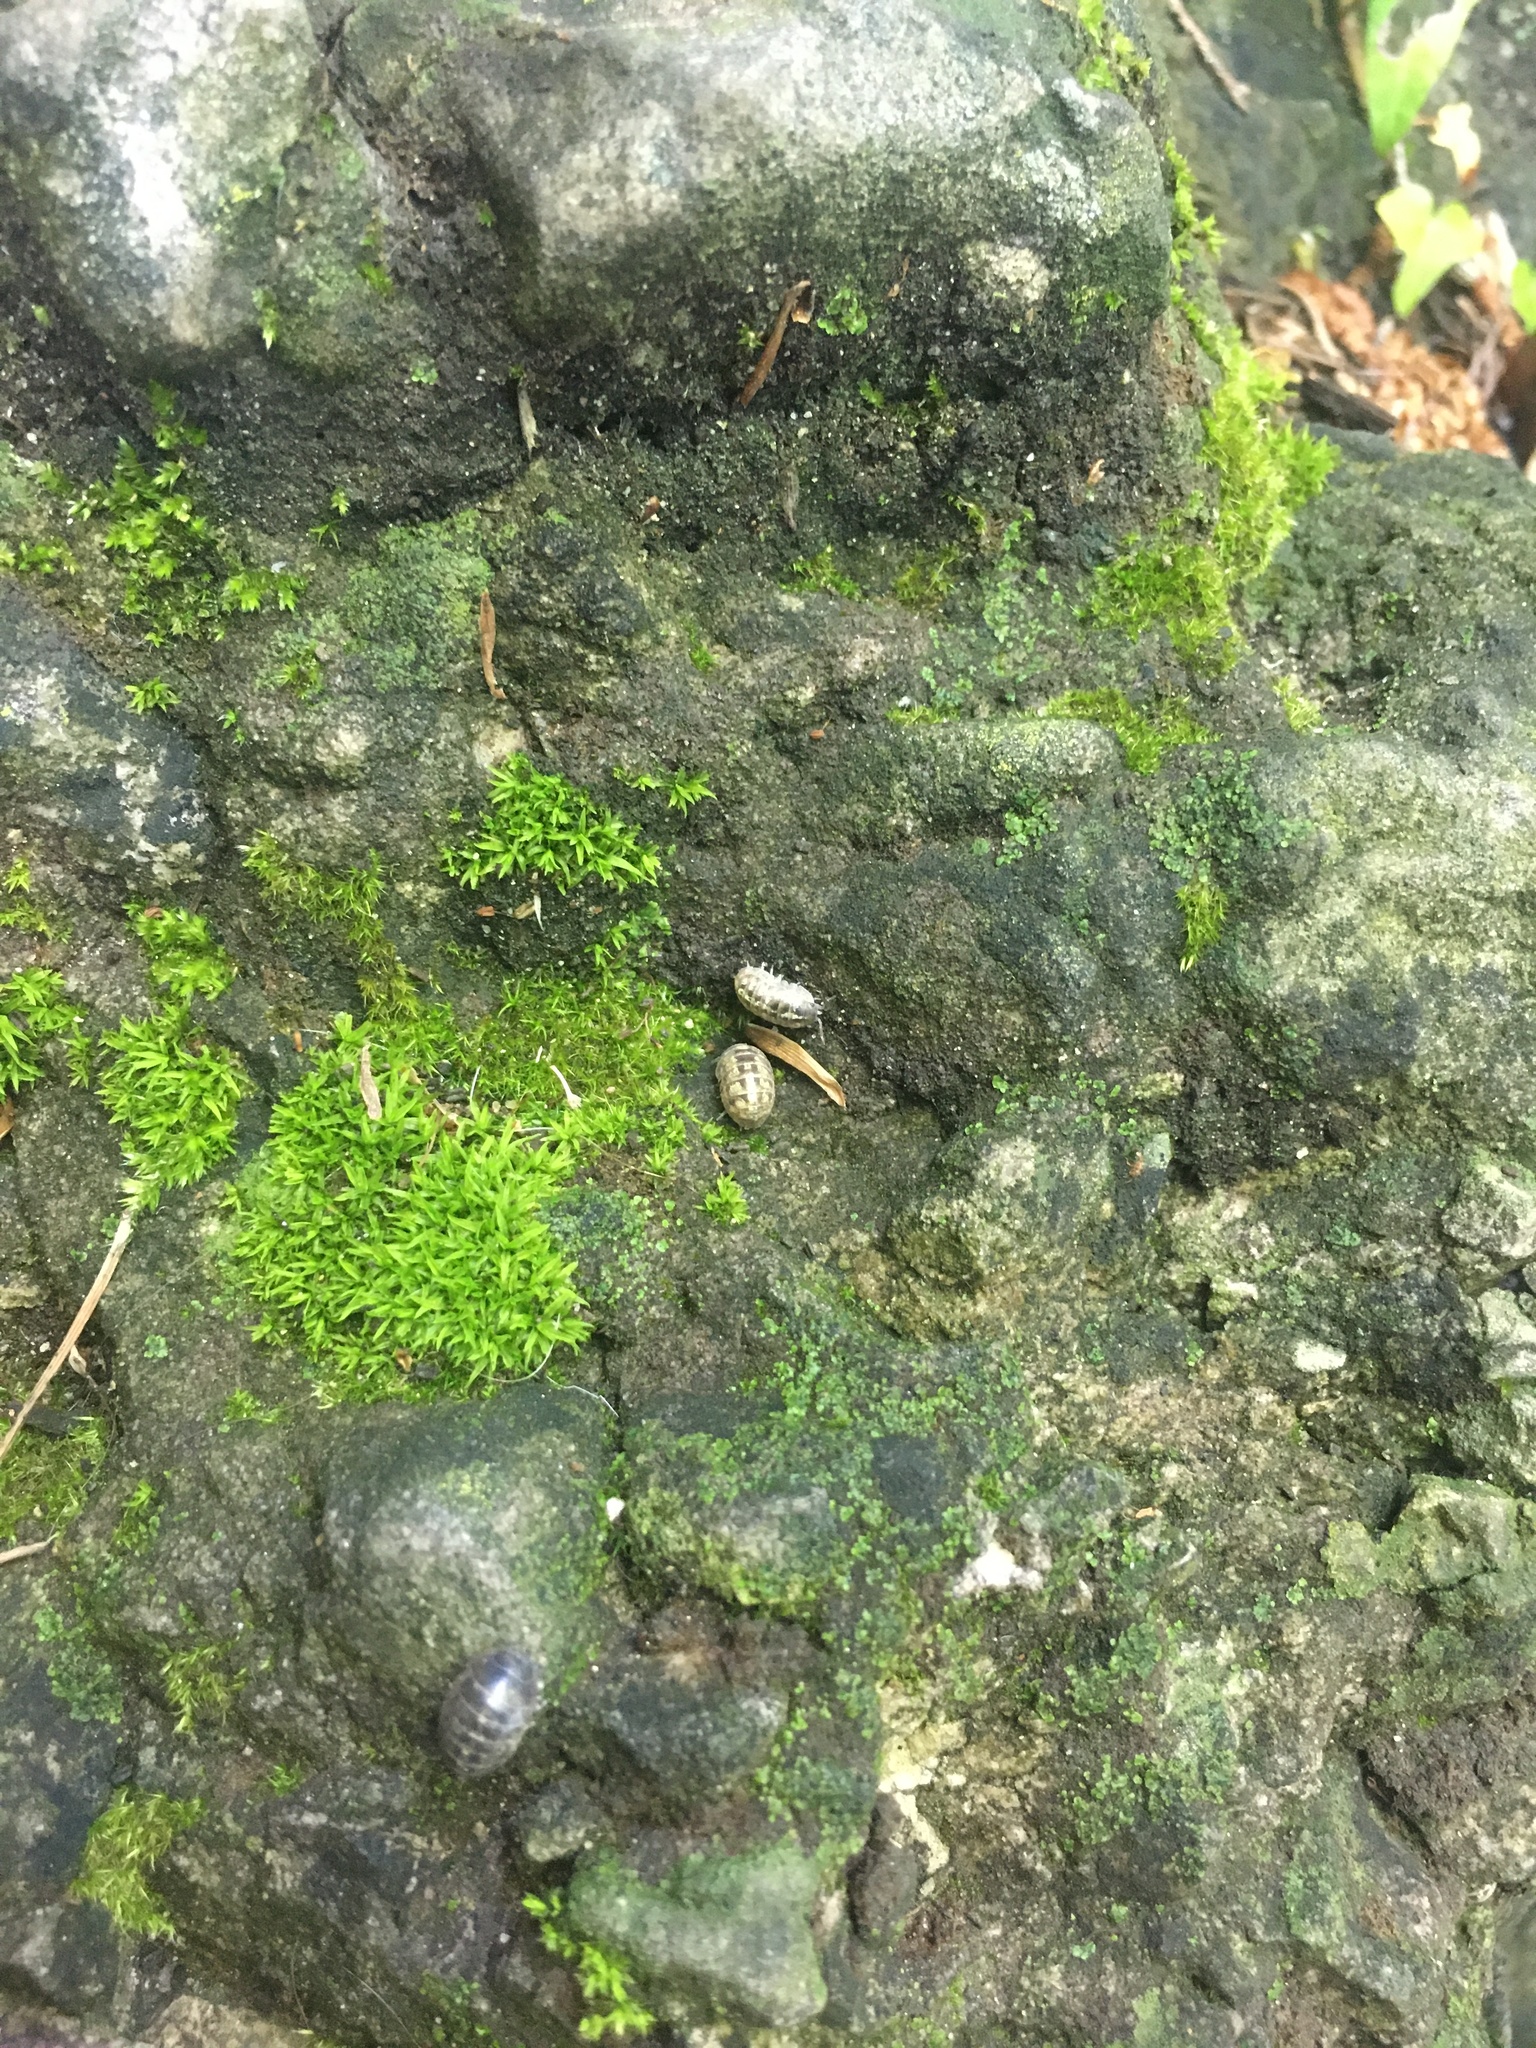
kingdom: Animalia
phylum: Arthropoda
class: Malacostraca
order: Isopoda
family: Armadillidiidae
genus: Armadillidium
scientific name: Armadillidium vulgare
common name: Common pill woodlouse
